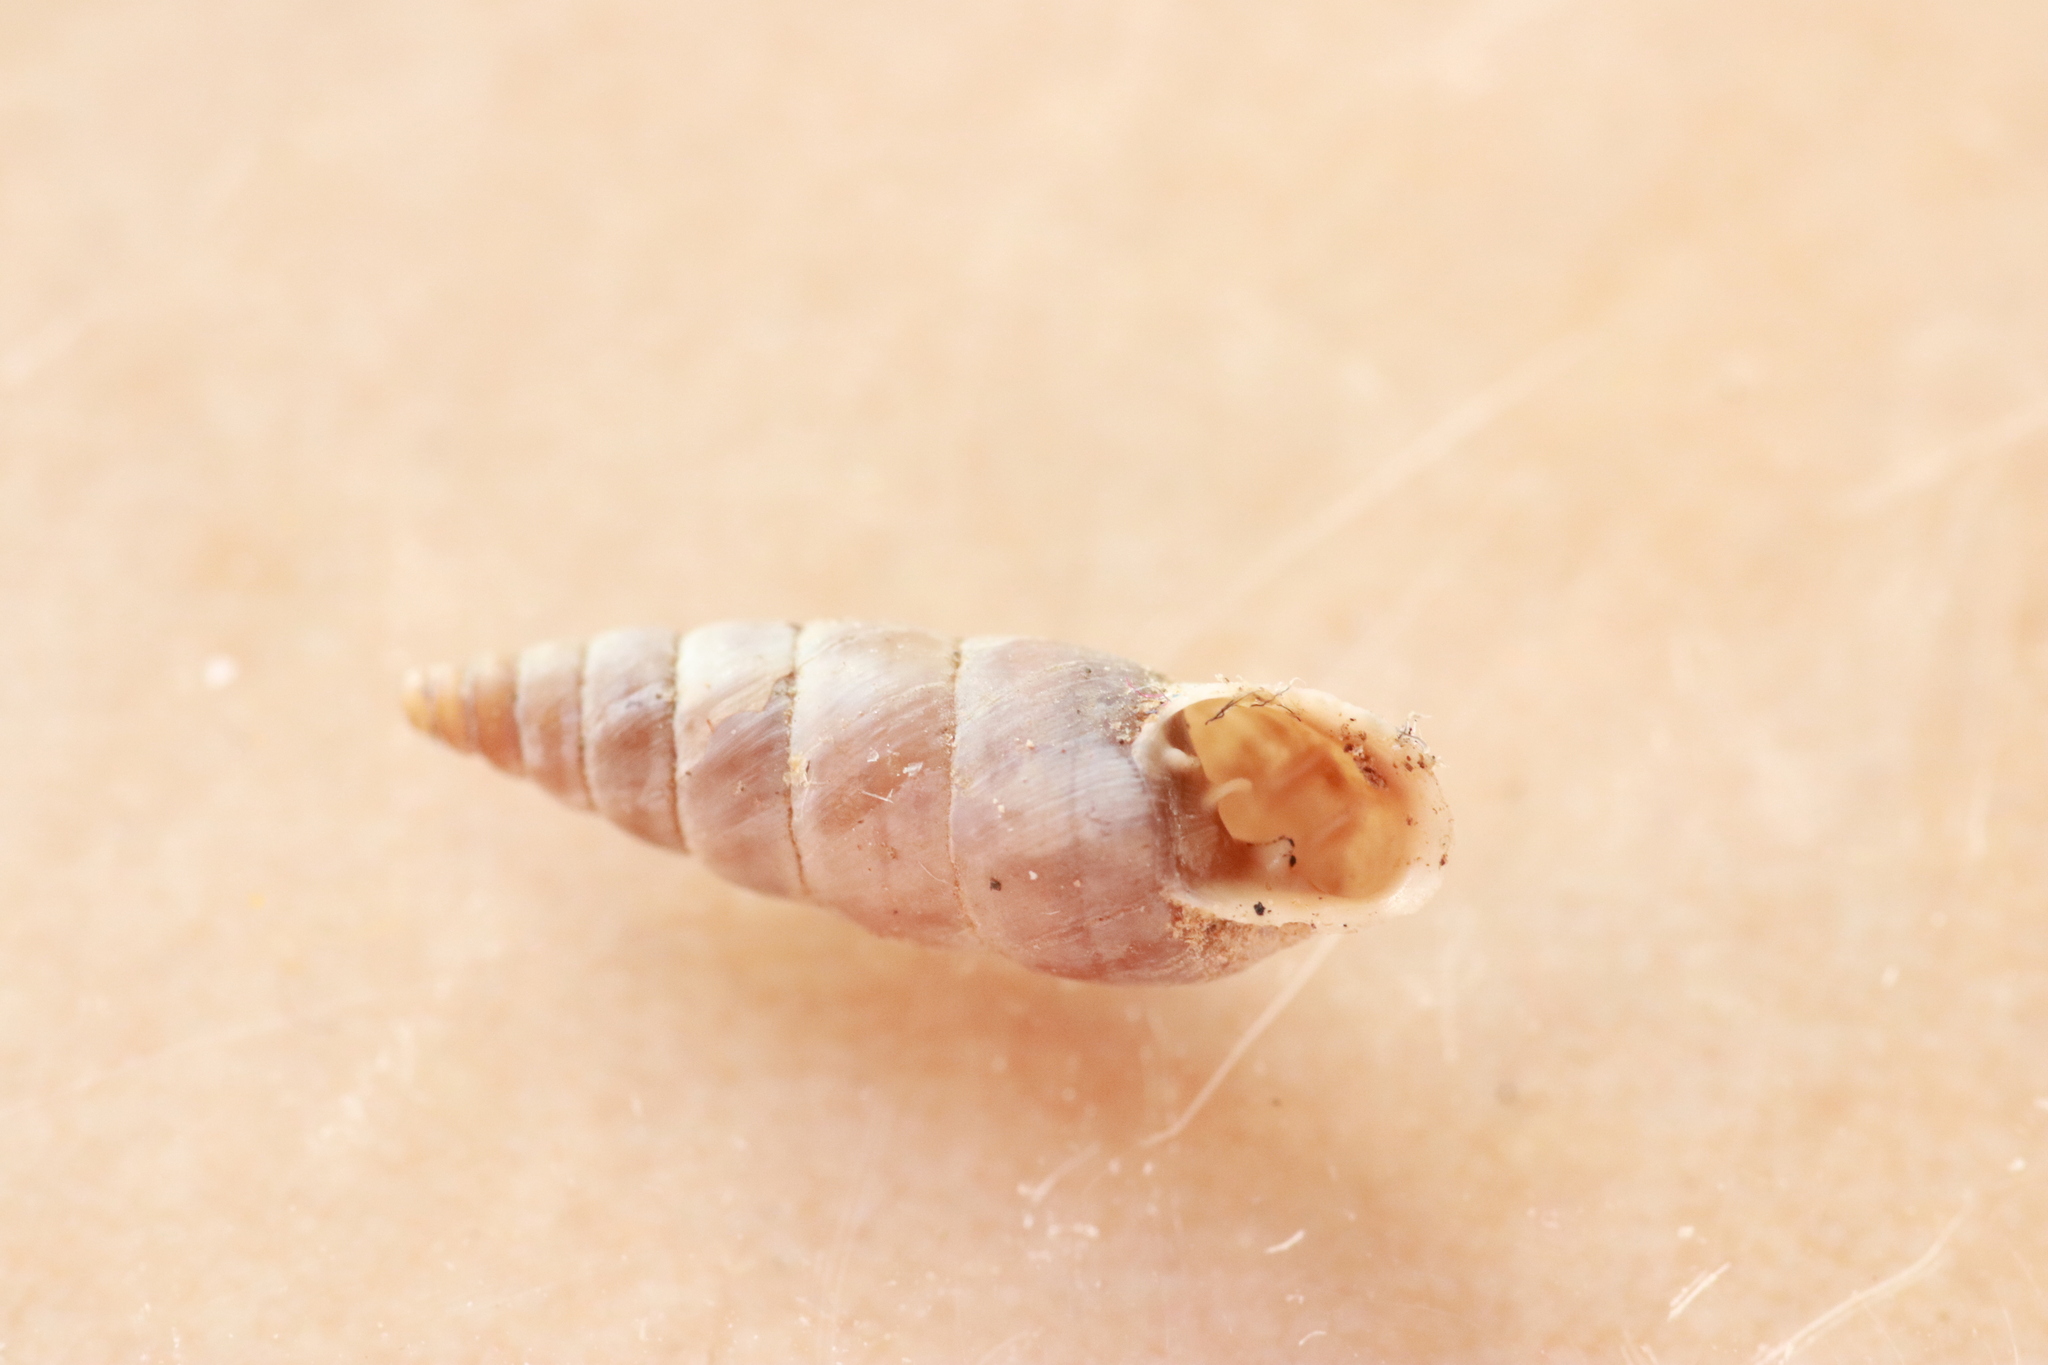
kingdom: Animalia
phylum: Mollusca
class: Gastropoda
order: Stylommatophora
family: Chondrinidae
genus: Solatopupa
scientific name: Solatopupa similis
